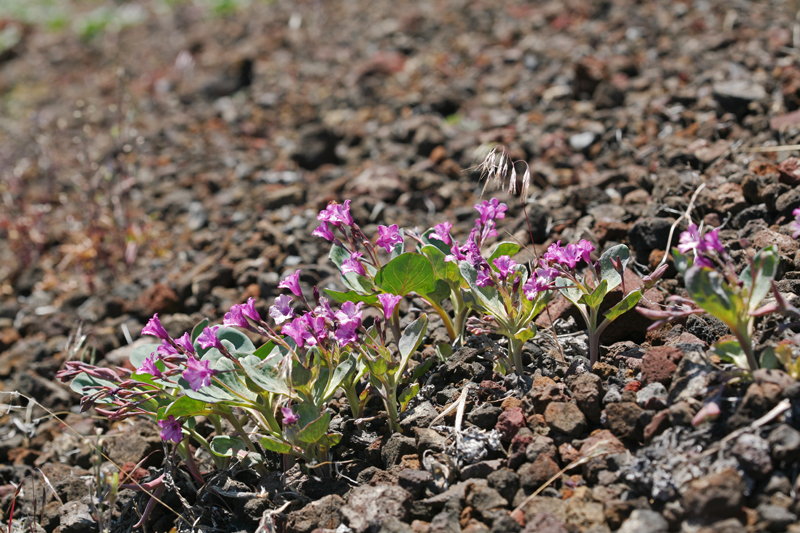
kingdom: Plantae
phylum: Tracheophyta
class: Magnoliopsida
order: Gentianales
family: Apocynaceae
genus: Cycladenia
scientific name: Cycladenia humilis
